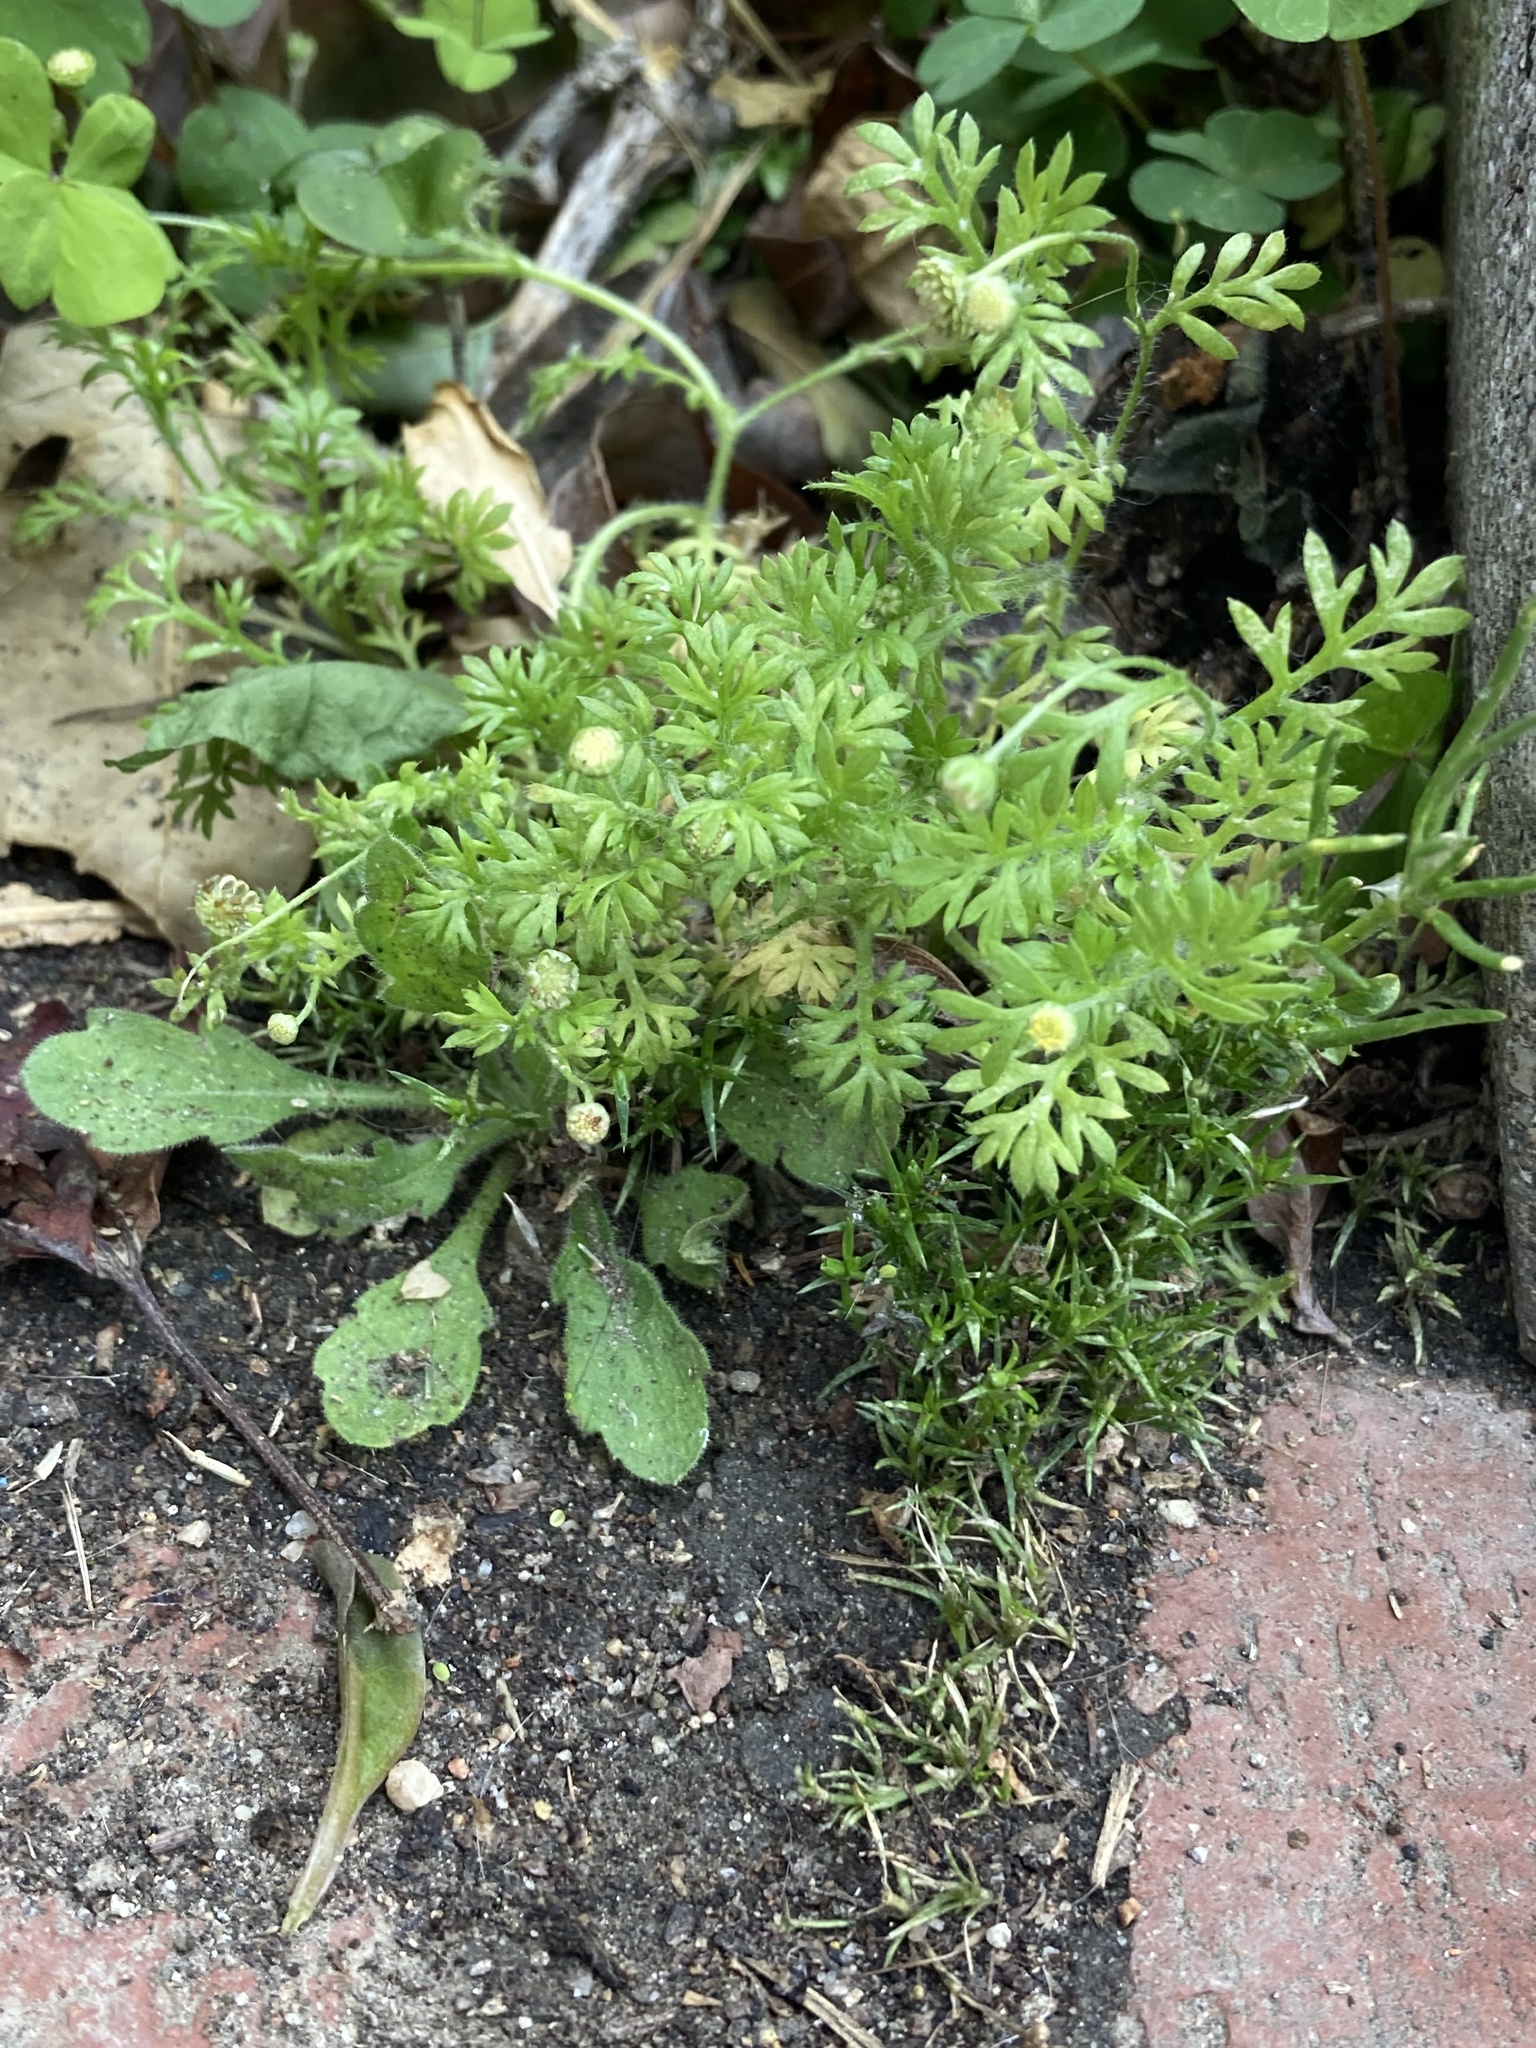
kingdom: Plantae
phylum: Tracheophyta
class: Magnoliopsida
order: Asterales
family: Asteraceae
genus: Cotula
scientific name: Cotula australis
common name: Australian waterbuttons
